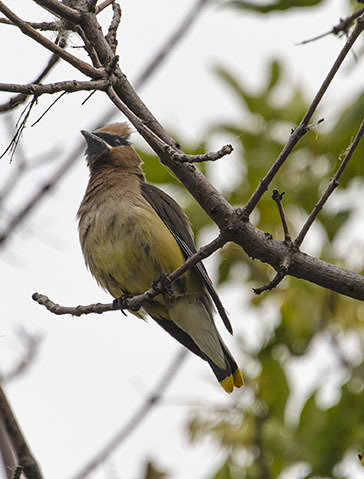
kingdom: Animalia
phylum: Chordata
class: Aves
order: Passeriformes
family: Bombycillidae
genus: Bombycilla
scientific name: Bombycilla cedrorum
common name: Cedar waxwing
